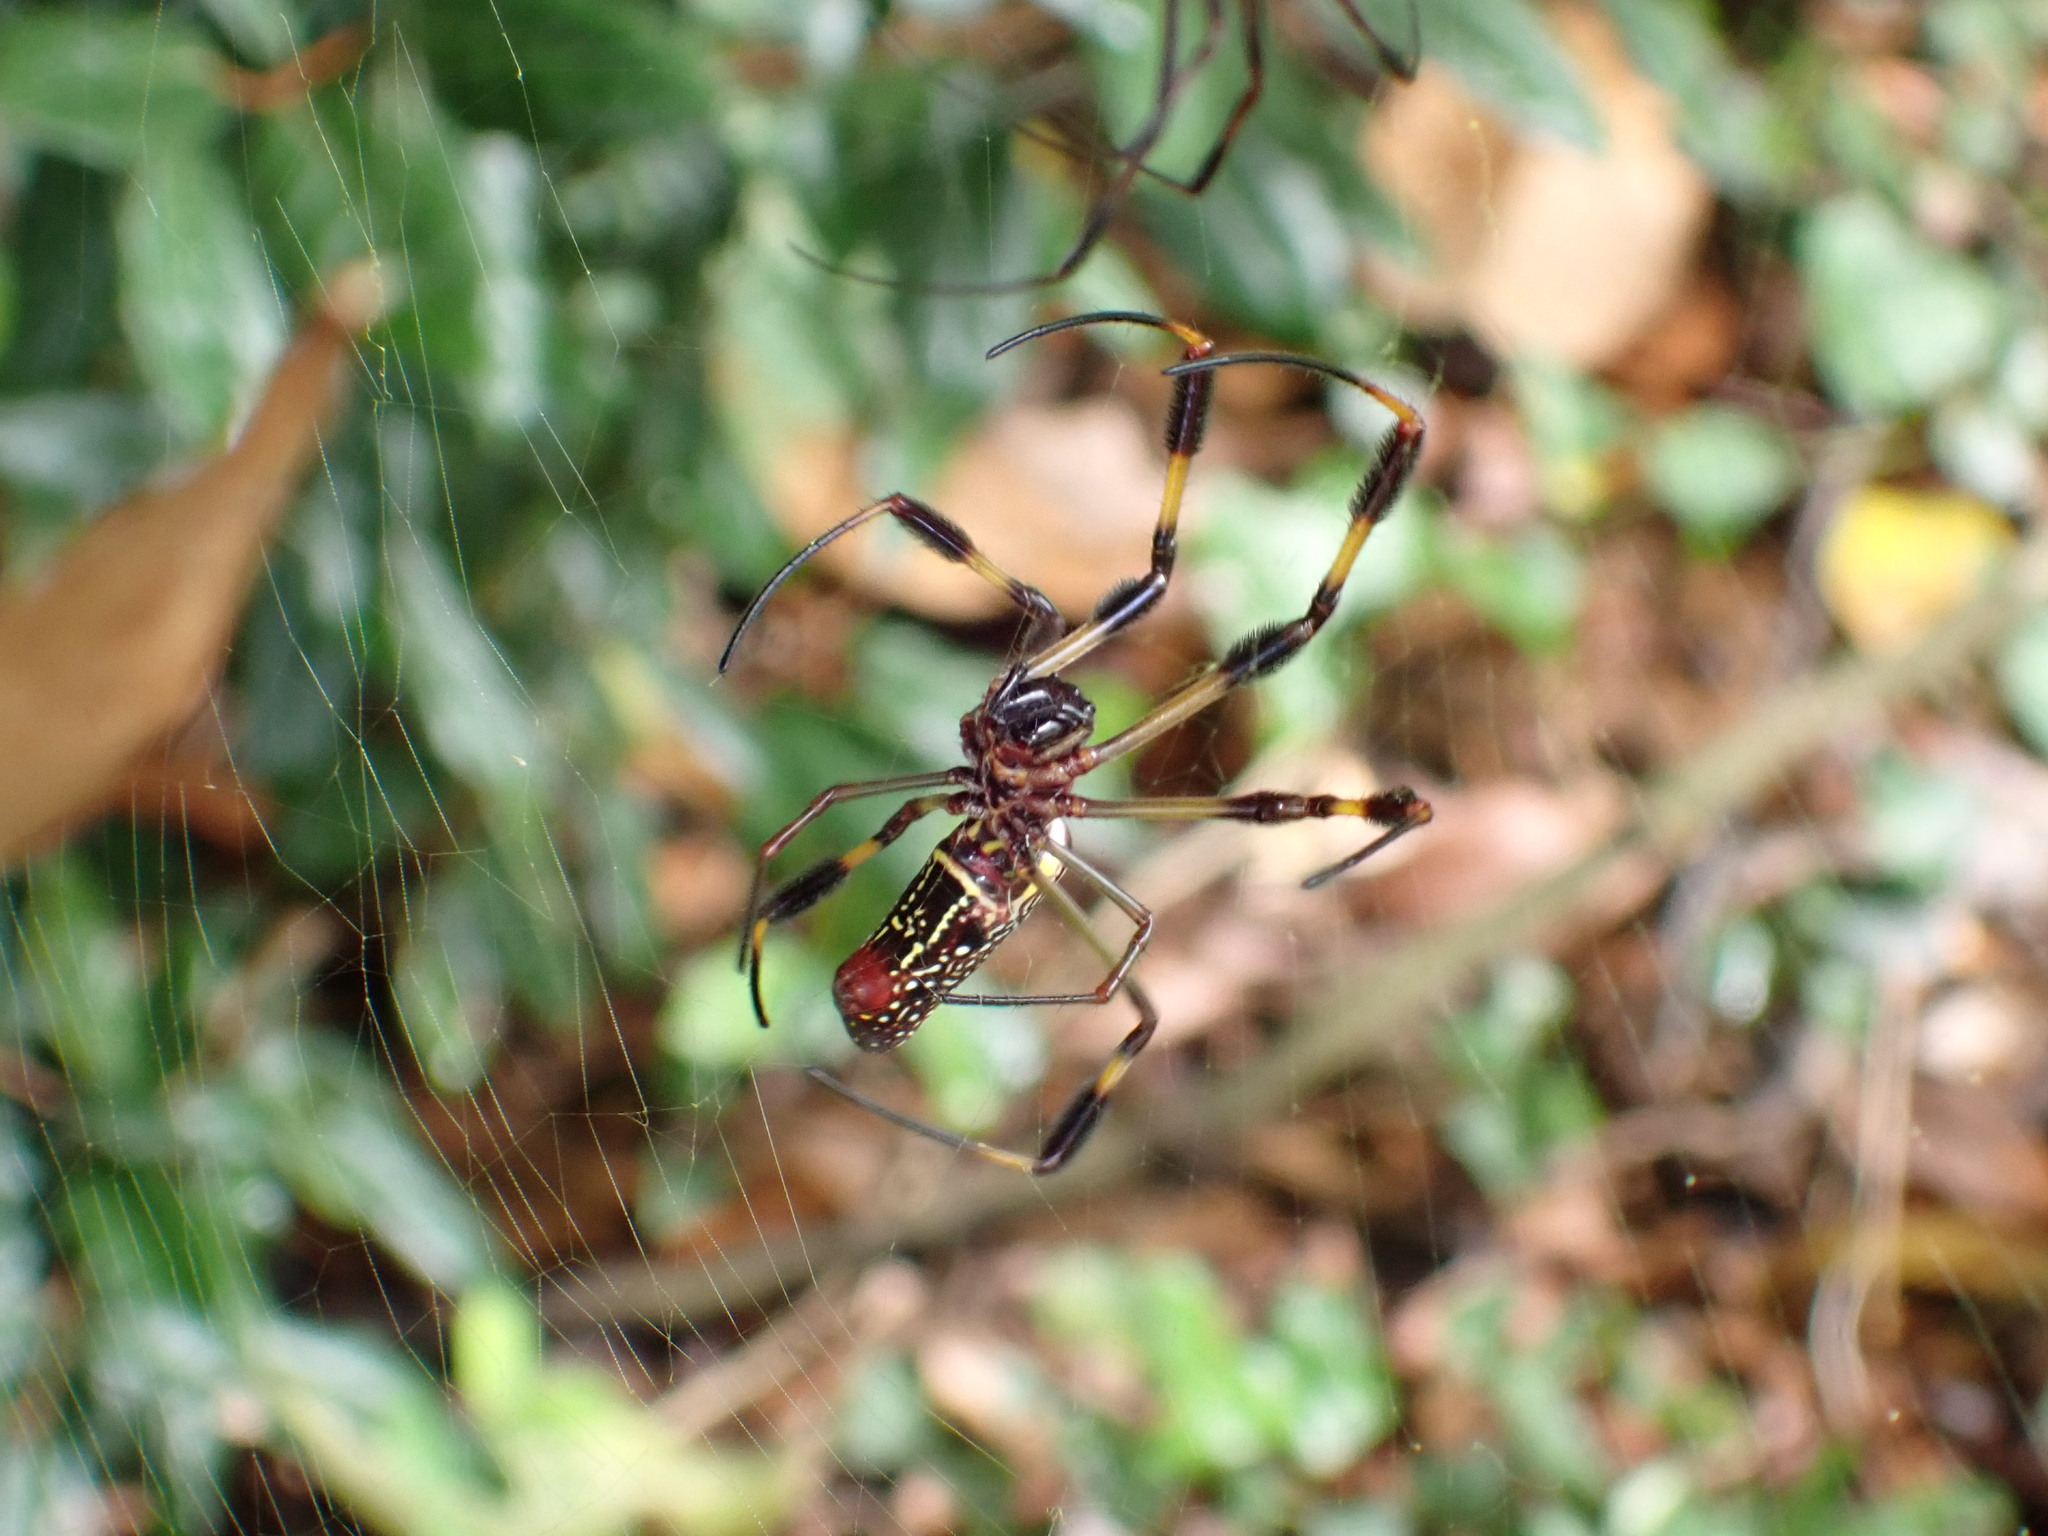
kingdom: Animalia
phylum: Arthropoda
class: Arachnida
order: Araneae
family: Araneidae
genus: Trichonephila
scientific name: Trichonephila clavipes
